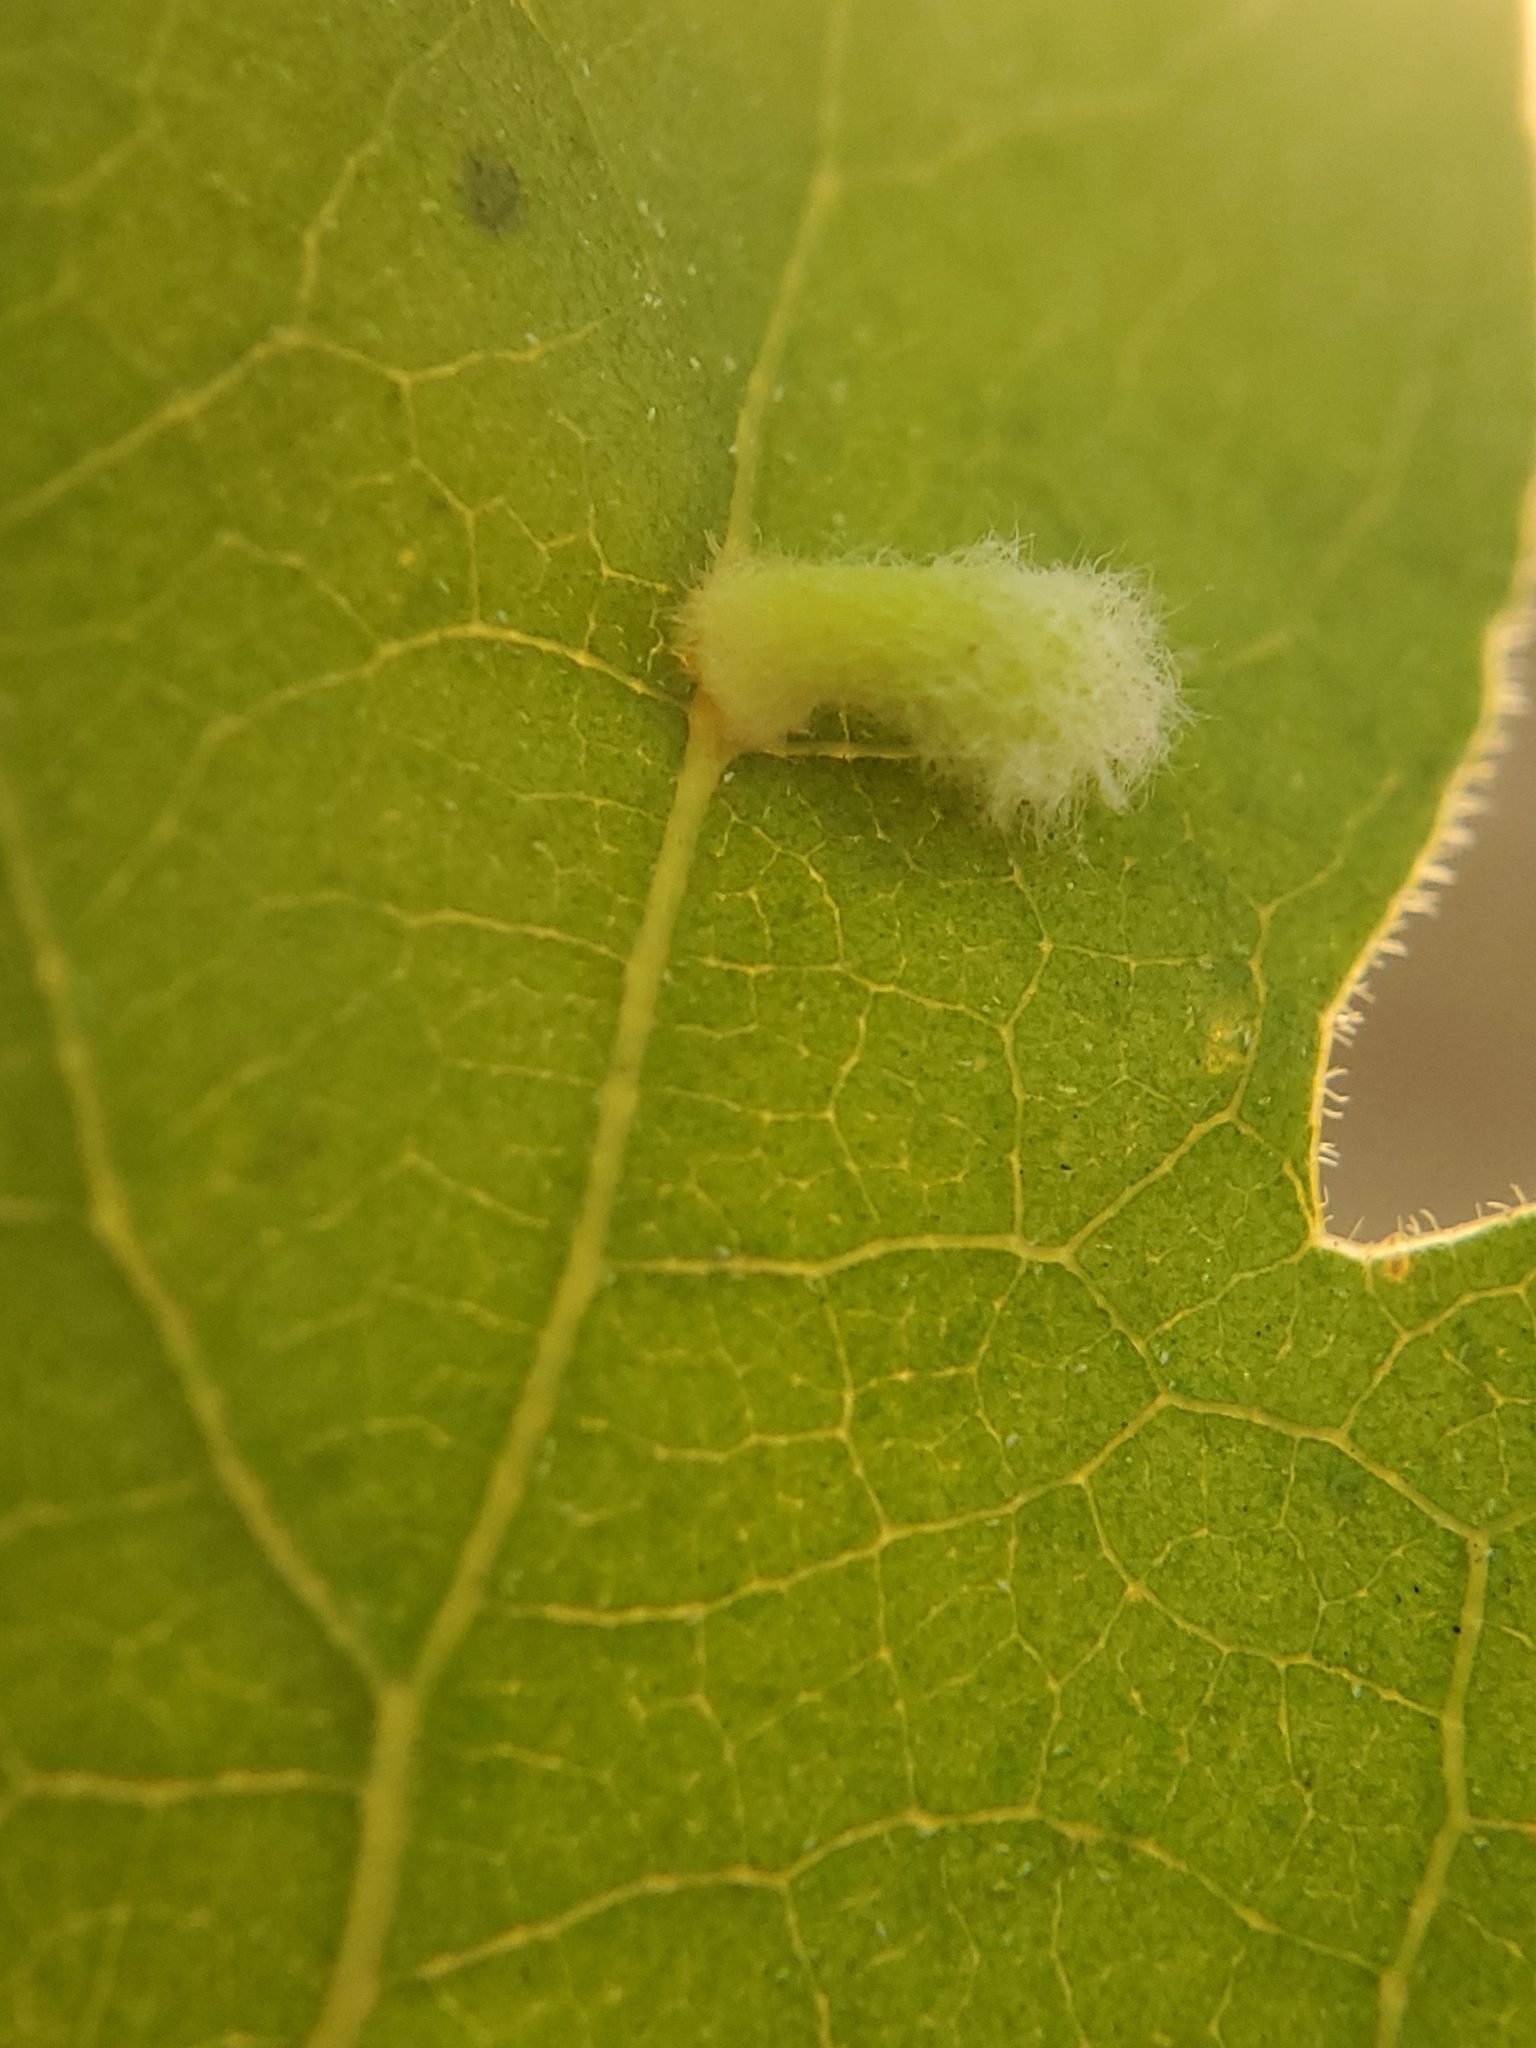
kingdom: Animalia
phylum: Arthropoda
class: Insecta
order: Hymenoptera
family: Cynipidae
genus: Atrusca
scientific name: Atrusca
